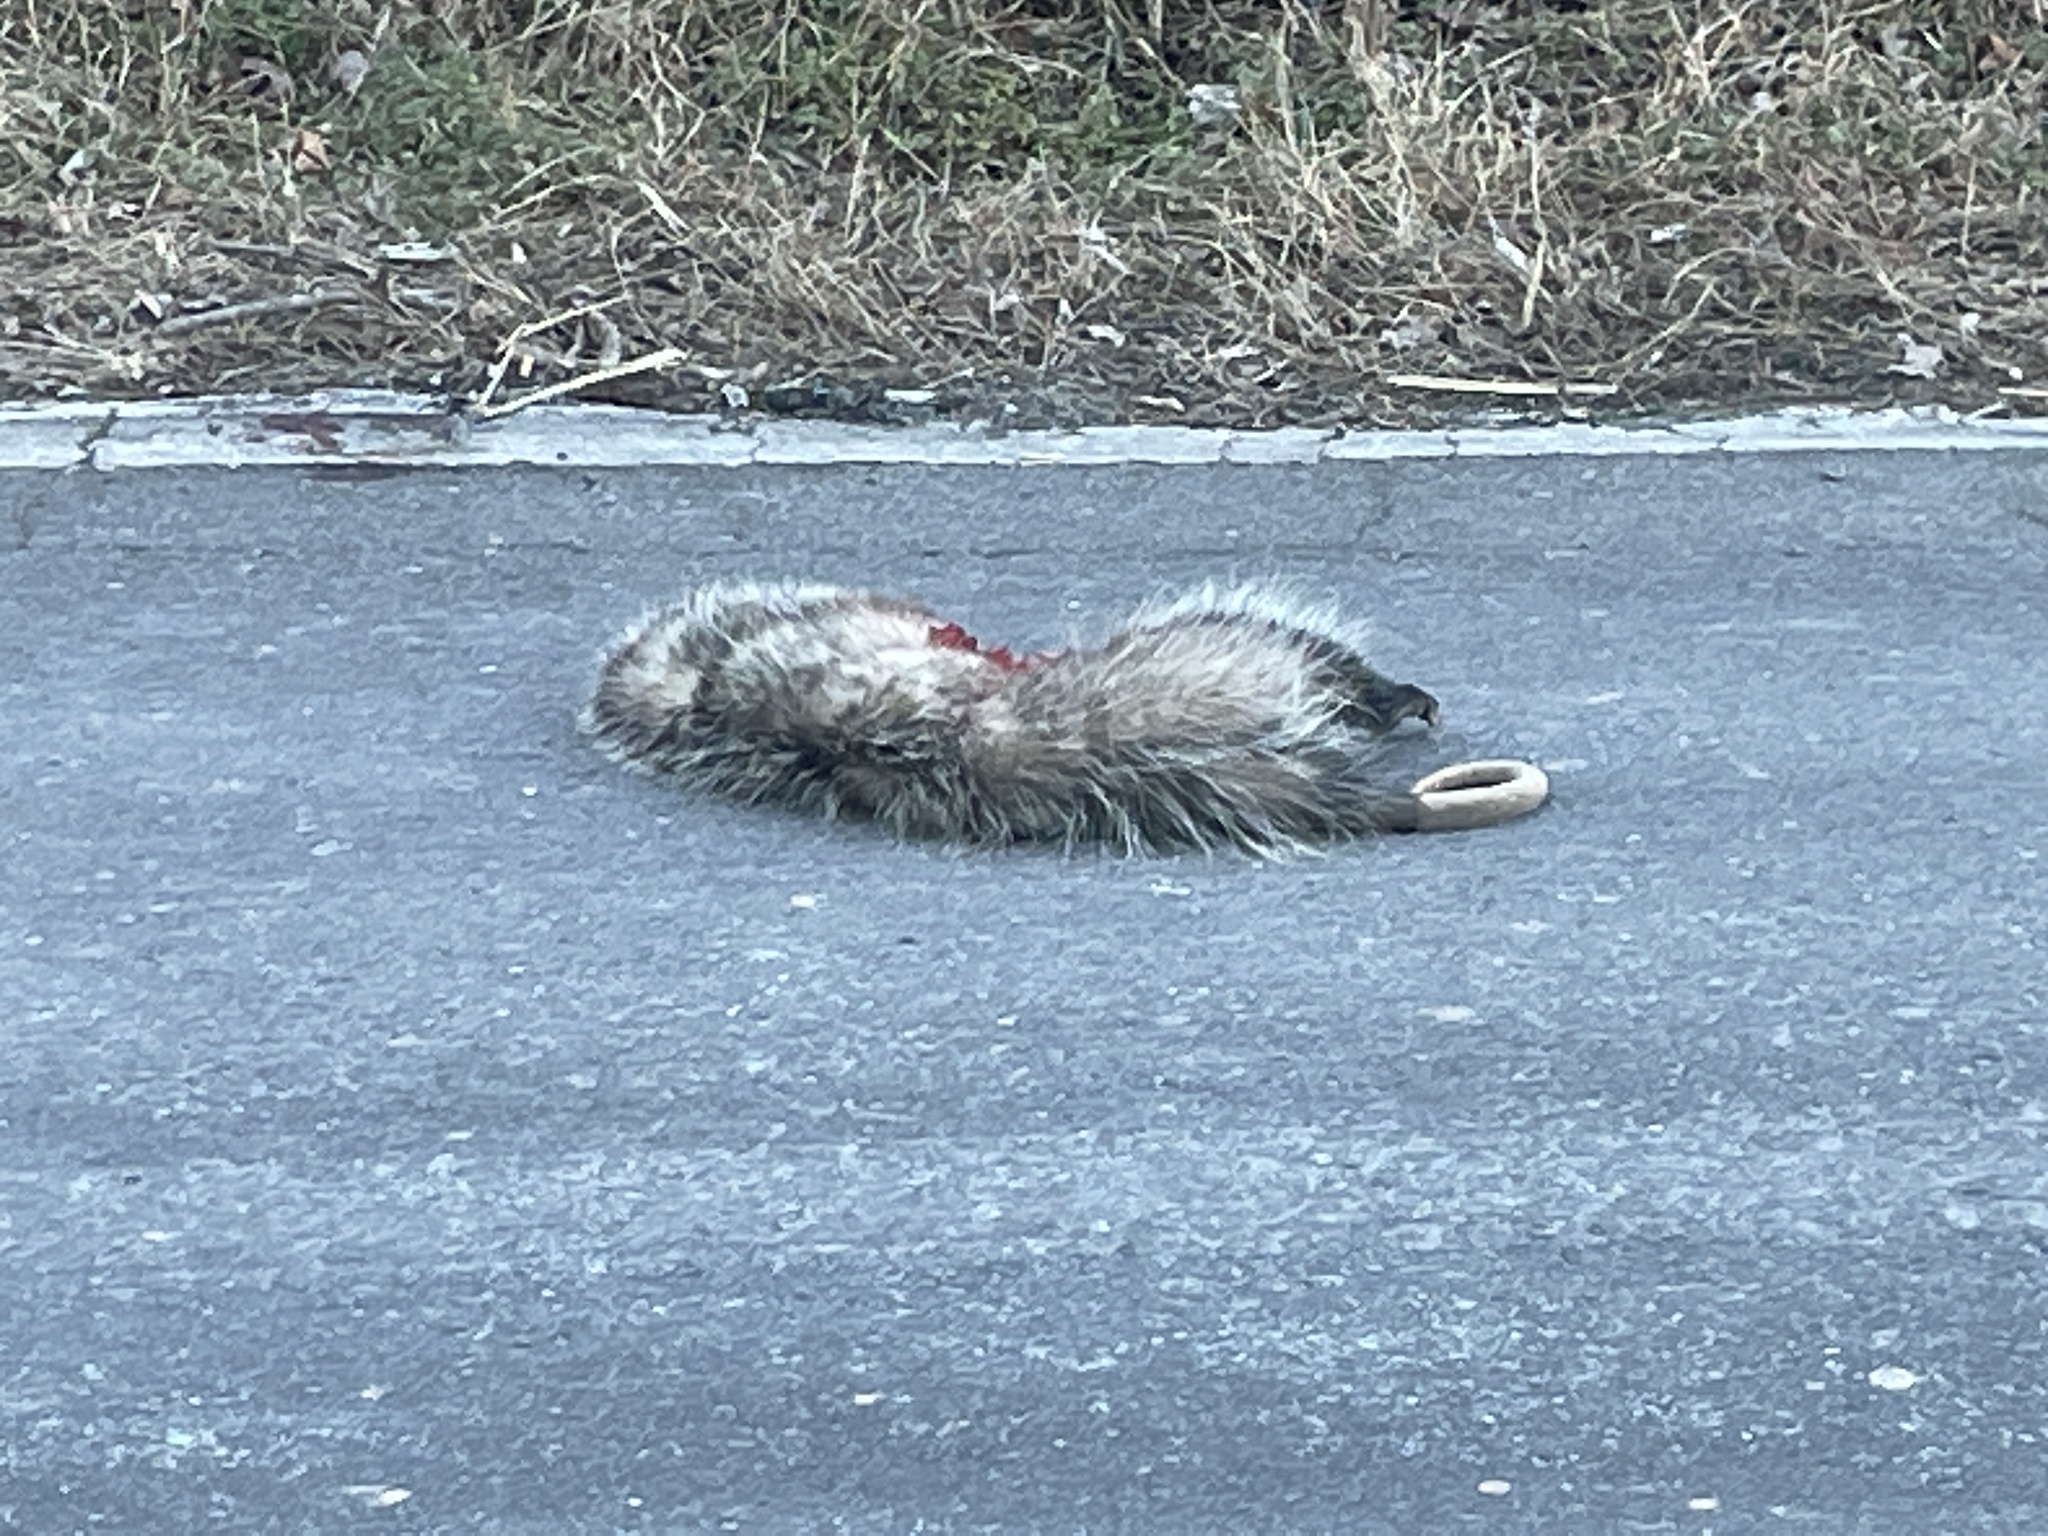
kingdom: Animalia
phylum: Chordata
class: Mammalia
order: Didelphimorphia
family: Didelphidae
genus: Didelphis
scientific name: Didelphis virginiana
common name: Virginia opossum
